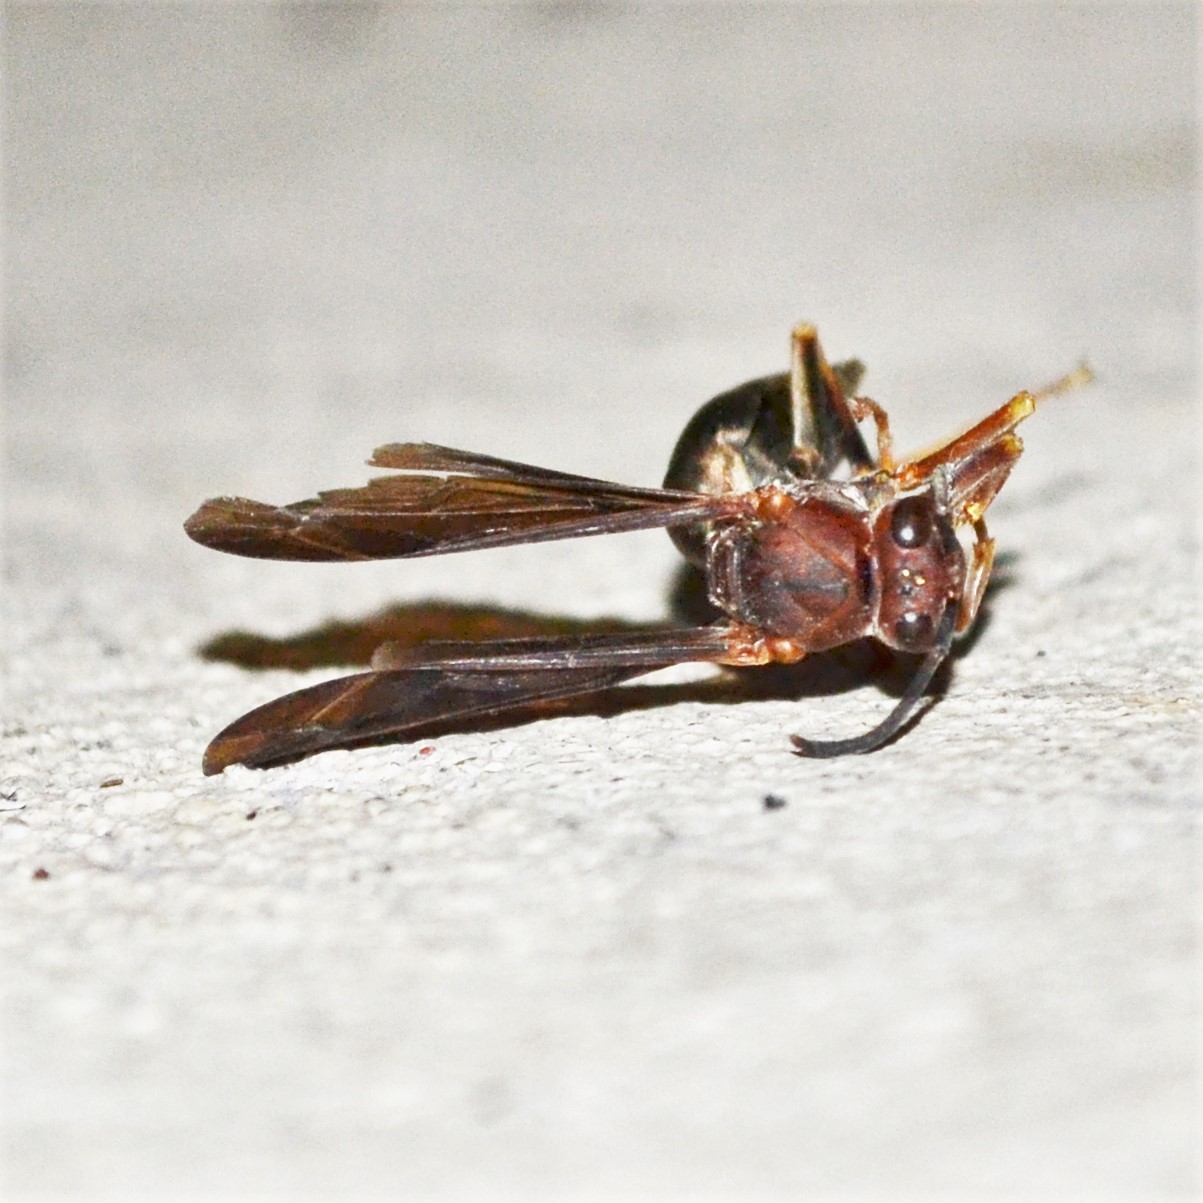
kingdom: Animalia
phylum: Arthropoda
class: Insecta
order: Hymenoptera
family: Eumenidae
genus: Polistes
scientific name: Polistes metricus
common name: Metric paper wasp
